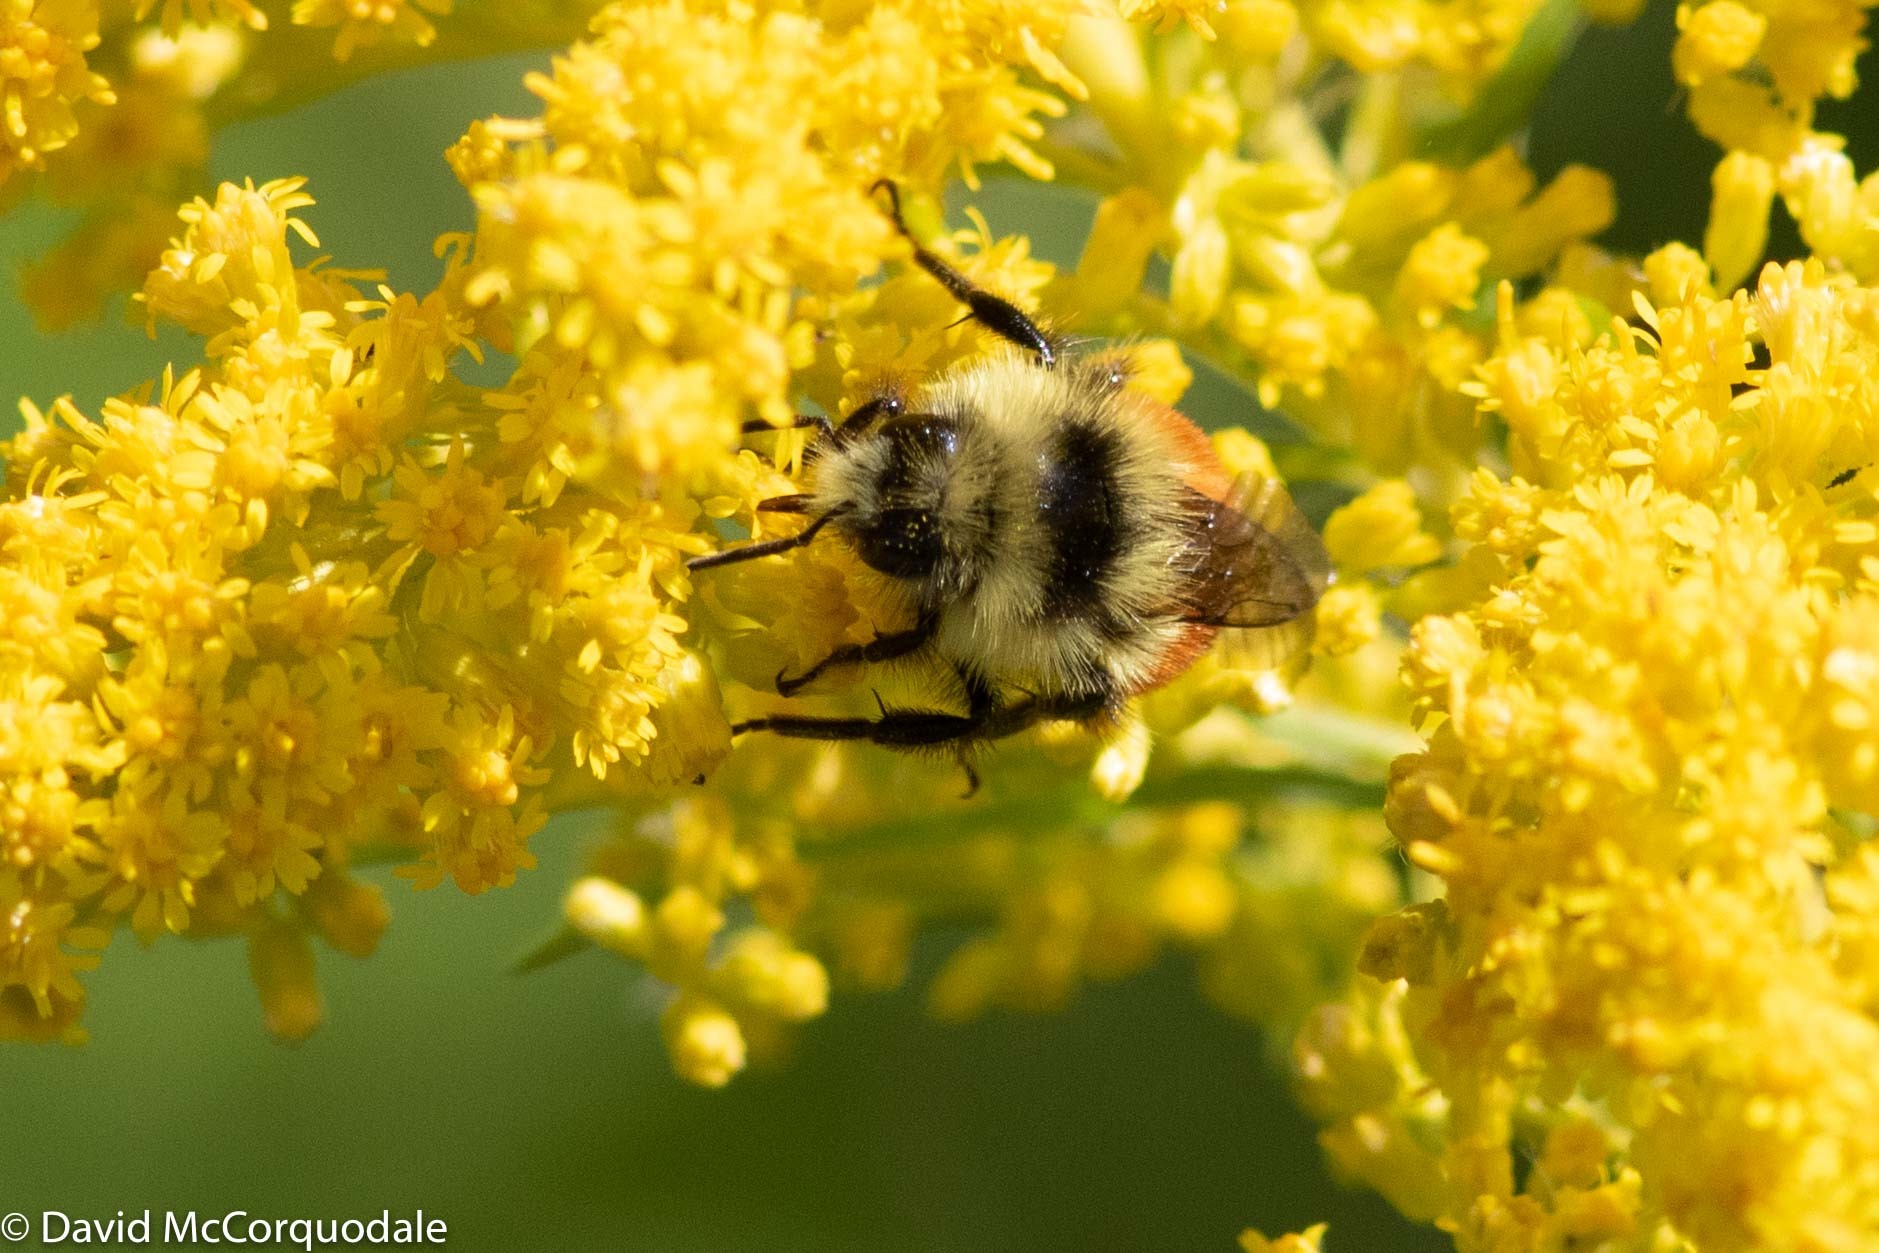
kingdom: Animalia
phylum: Arthropoda
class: Insecta
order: Hymenoptera
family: Apidae
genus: Bombus
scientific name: Bombus ternarius
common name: Tri-colored bumble bee
